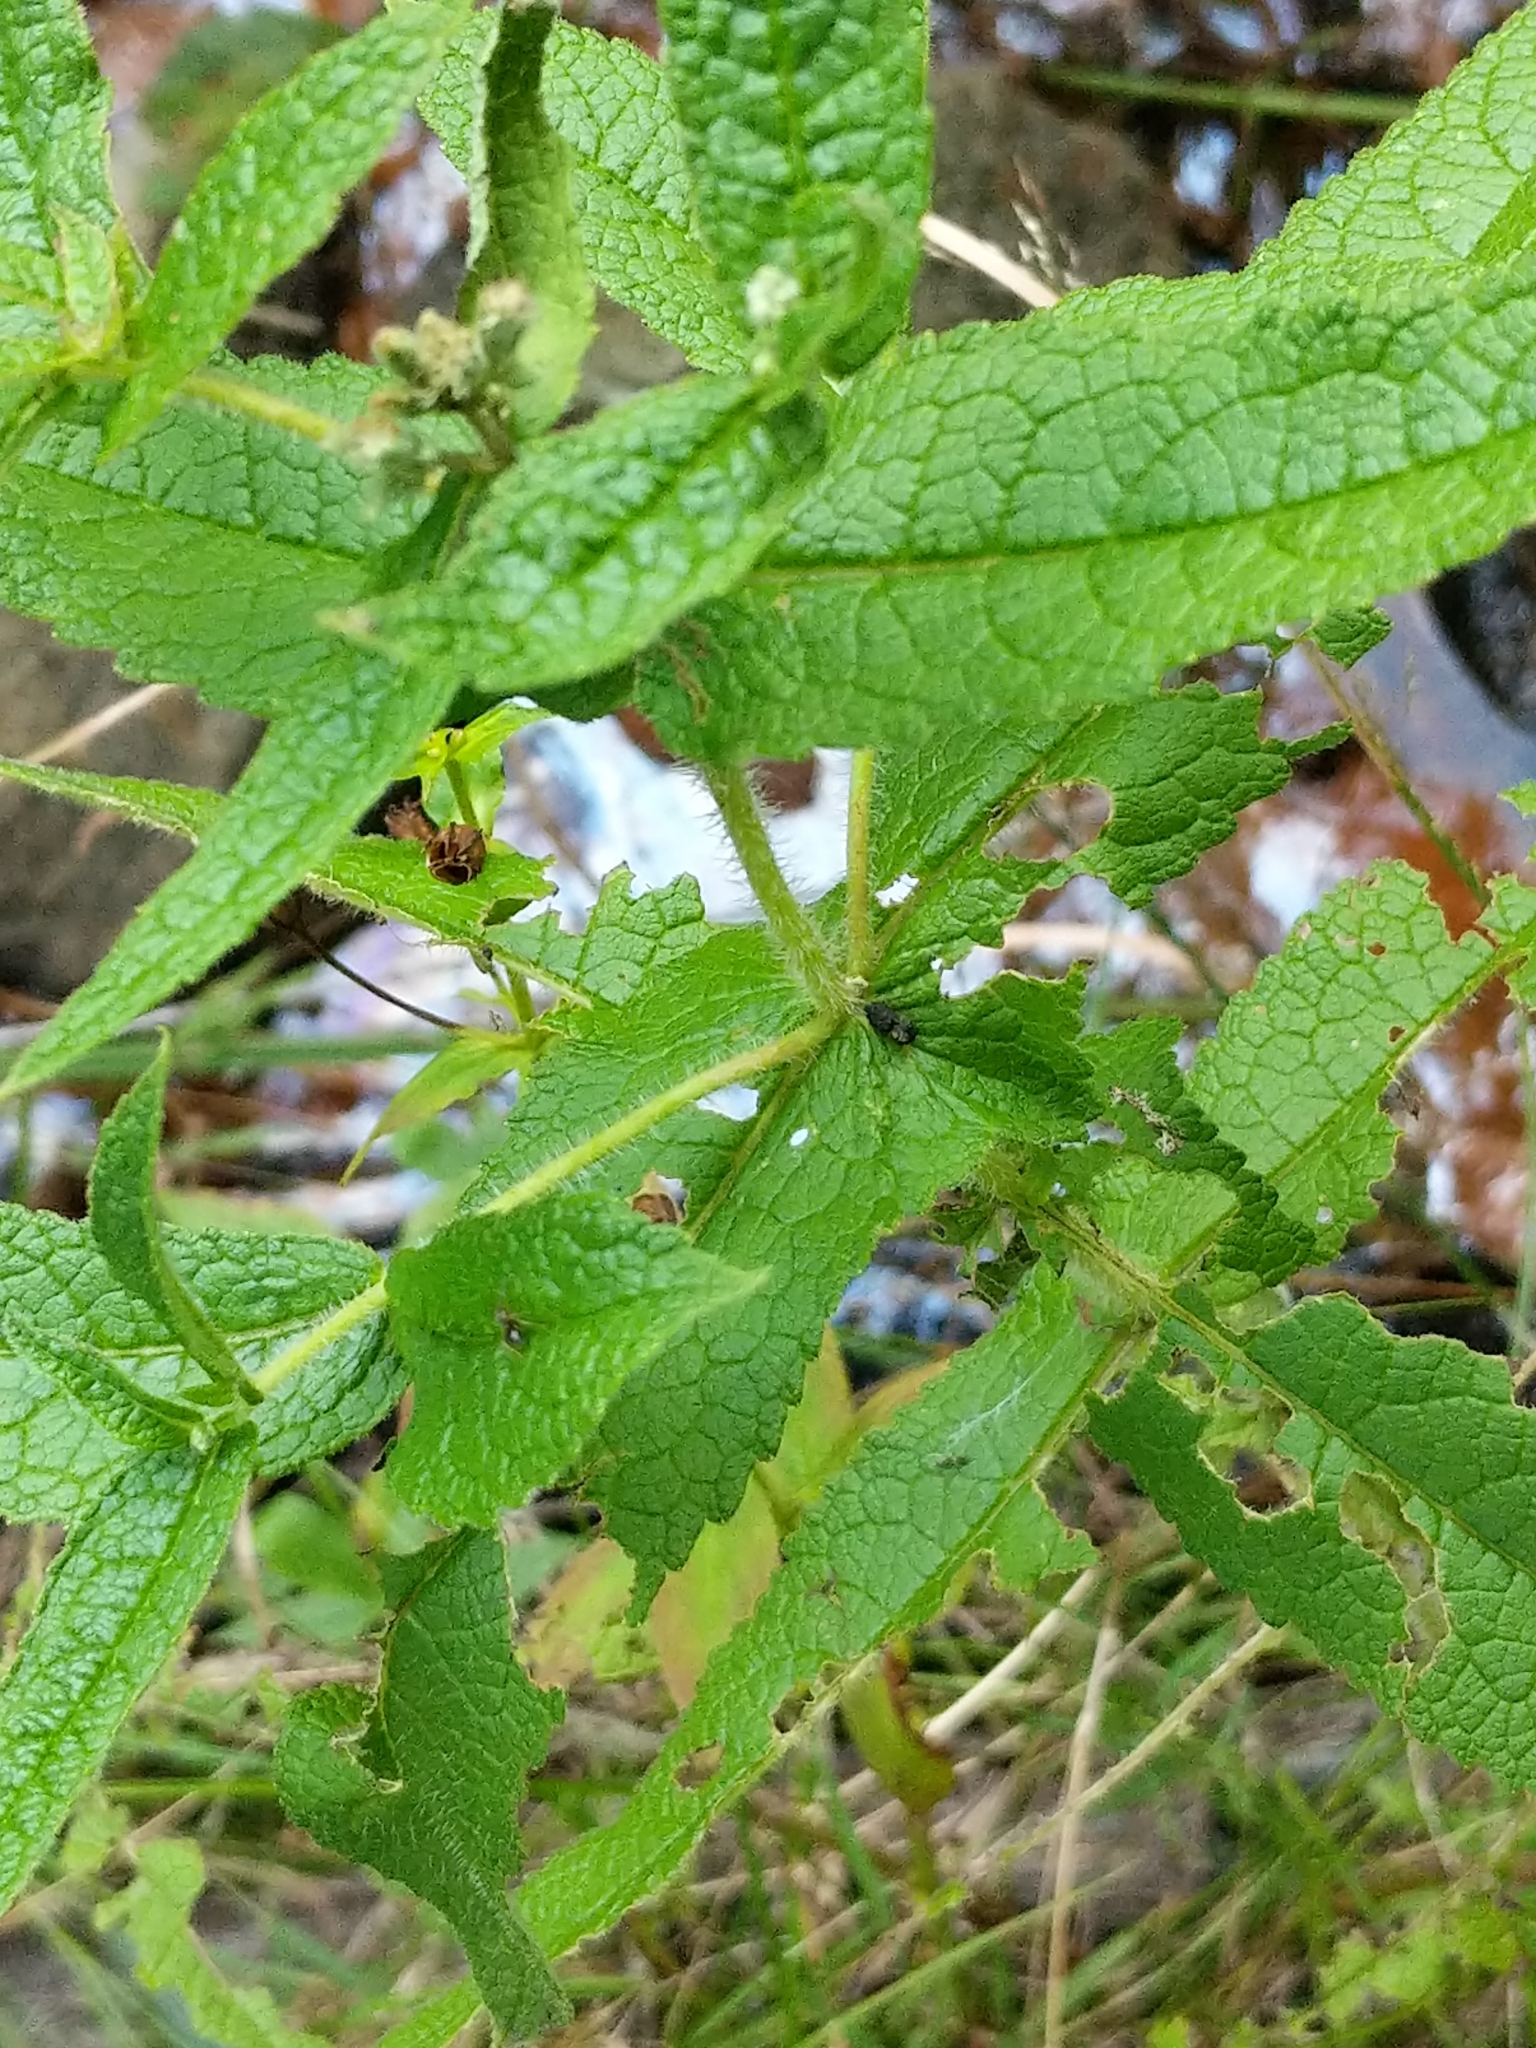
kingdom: Plantae
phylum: Tracheophyta
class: Magnoliopsida
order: Asterales
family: Asteraceae
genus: Eupatorium
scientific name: Eupatorium perfoliatum
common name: Boneset
